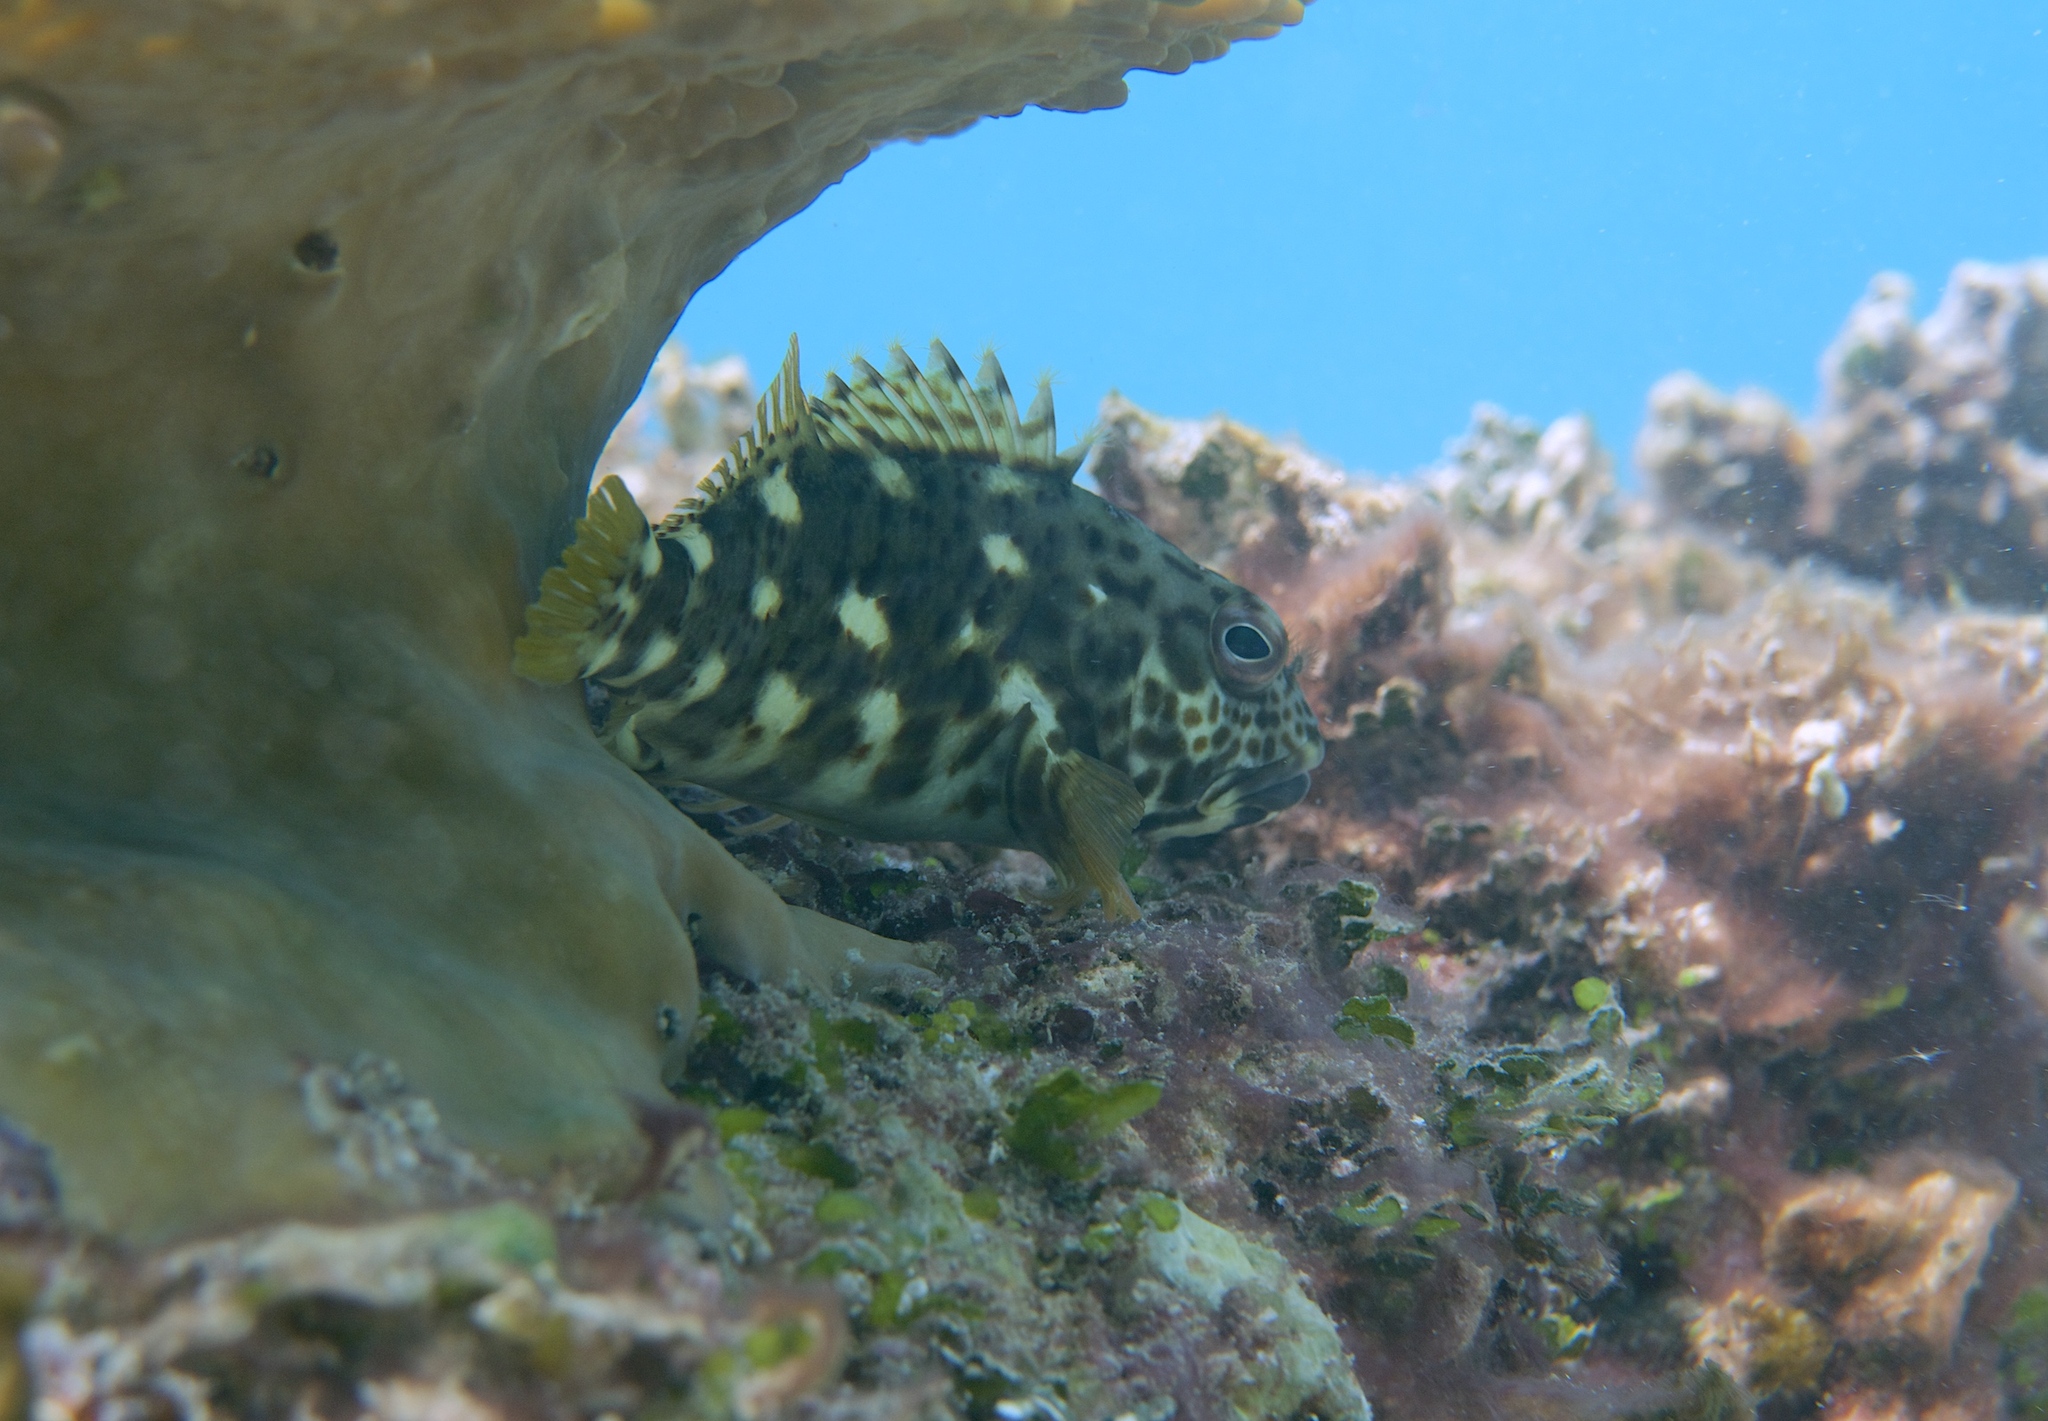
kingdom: Animalia
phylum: Chordata
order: Perciformes
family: Cirrhitidae
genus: Cirrhitus
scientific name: Cirrhitus pinnulatus
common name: Stocky hawkfish
